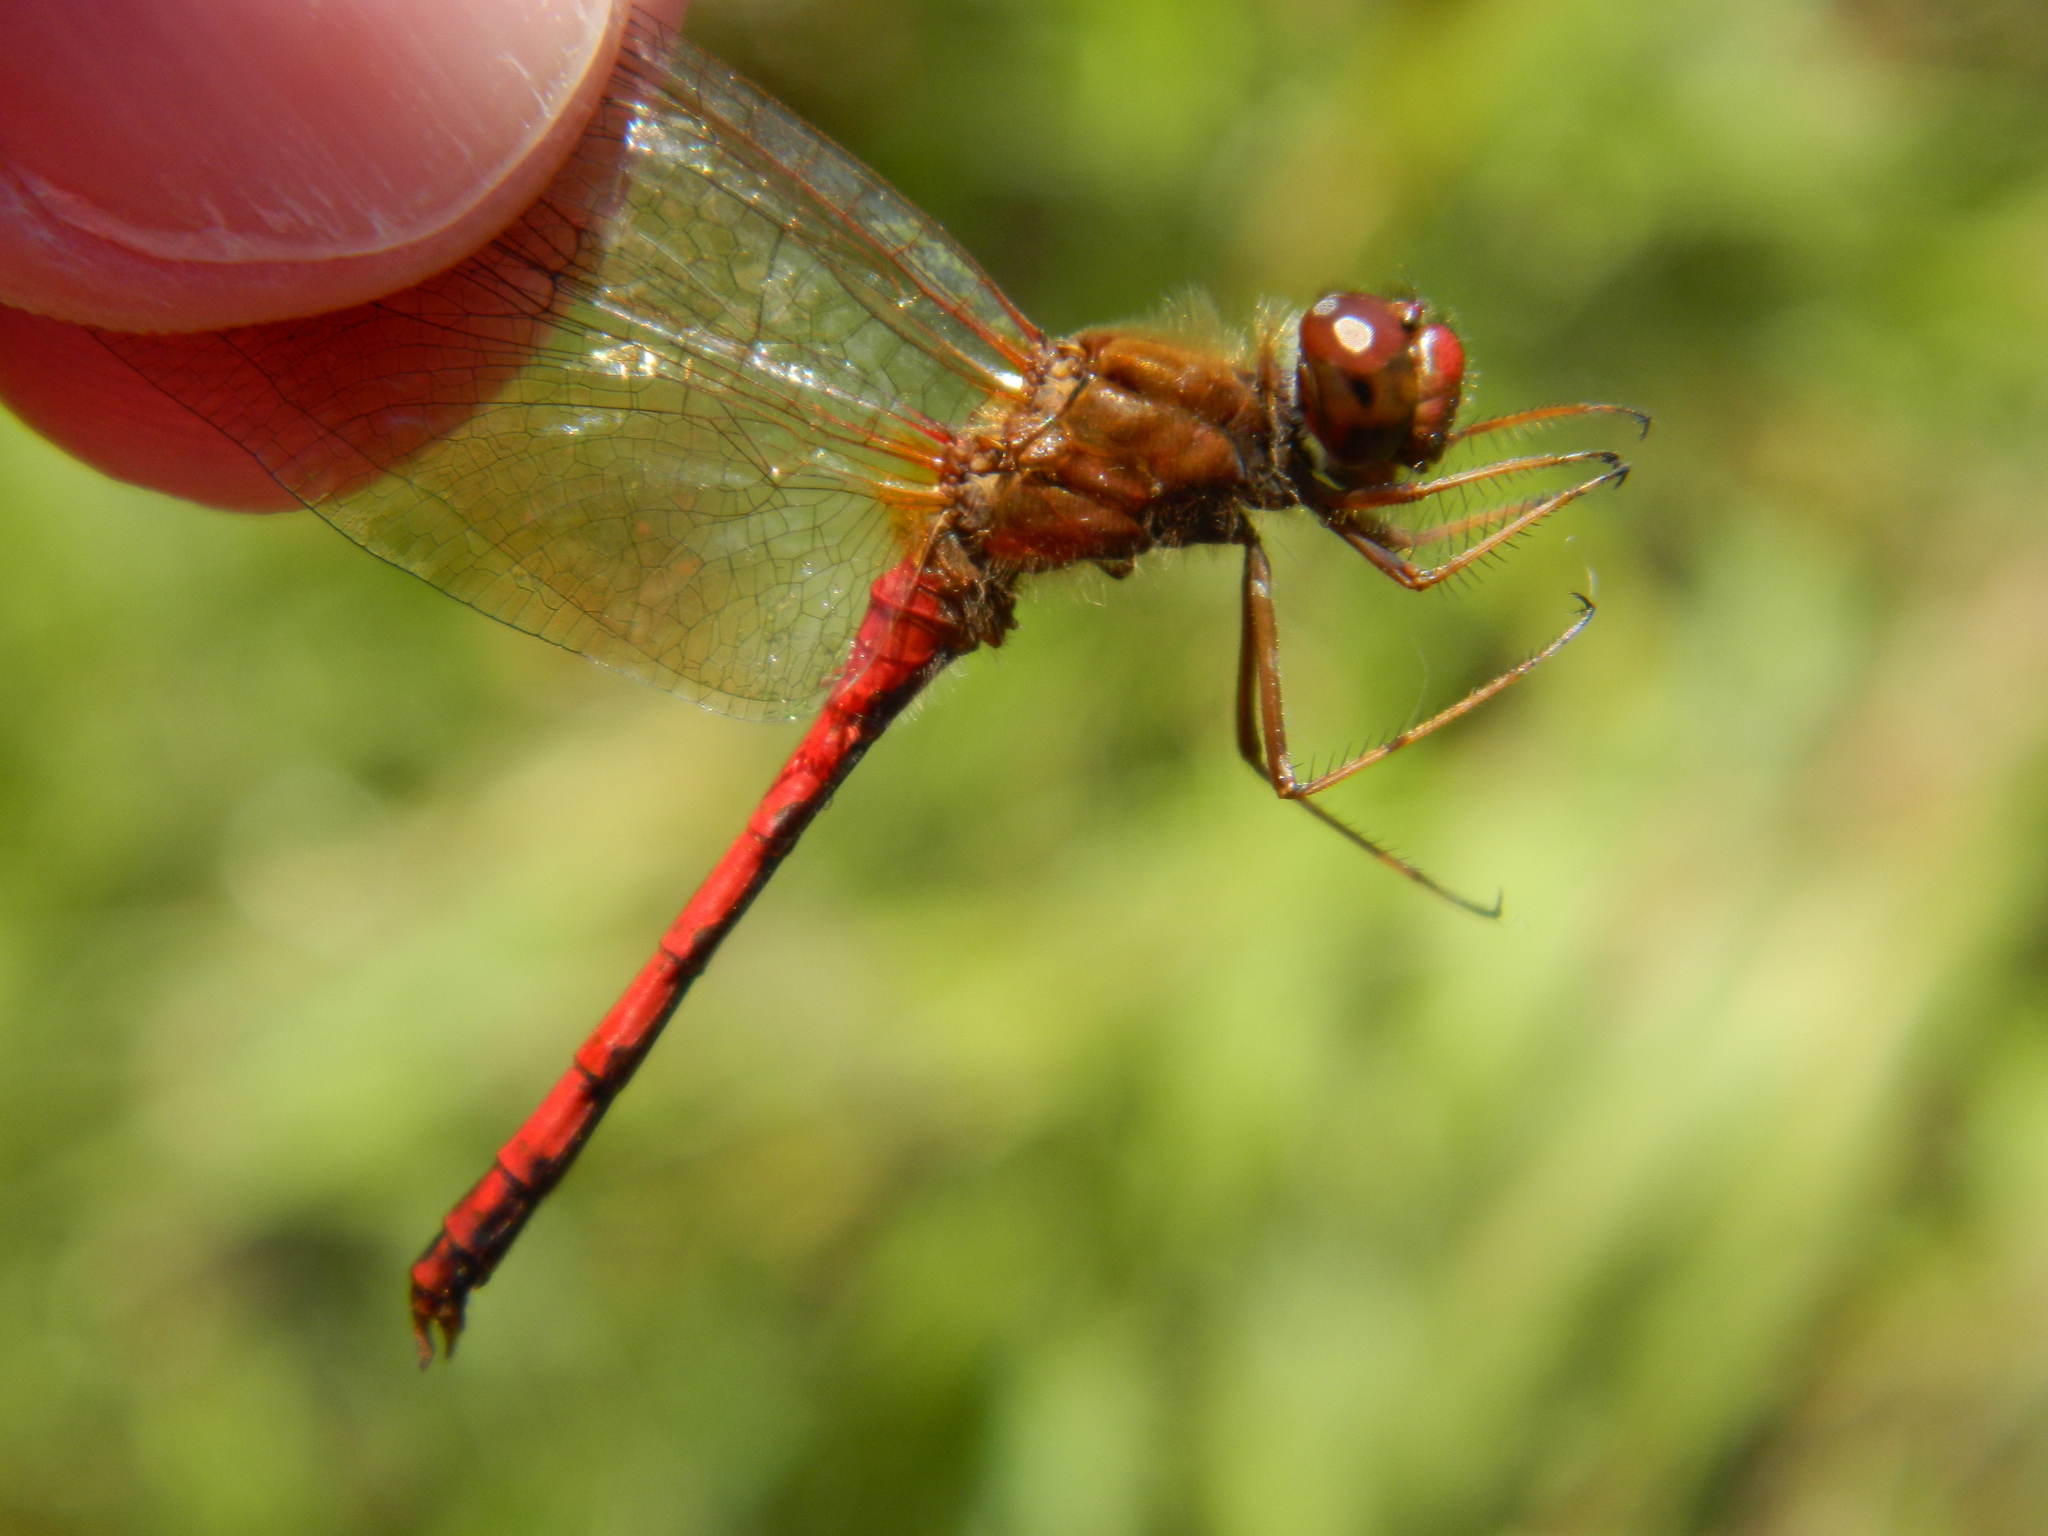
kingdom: Animalia
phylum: Arthropoda
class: Insecta
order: Odonata
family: Libellulidae
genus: Sympetrum
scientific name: Sympetrum vicinum
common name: Autumn meadowhawk
